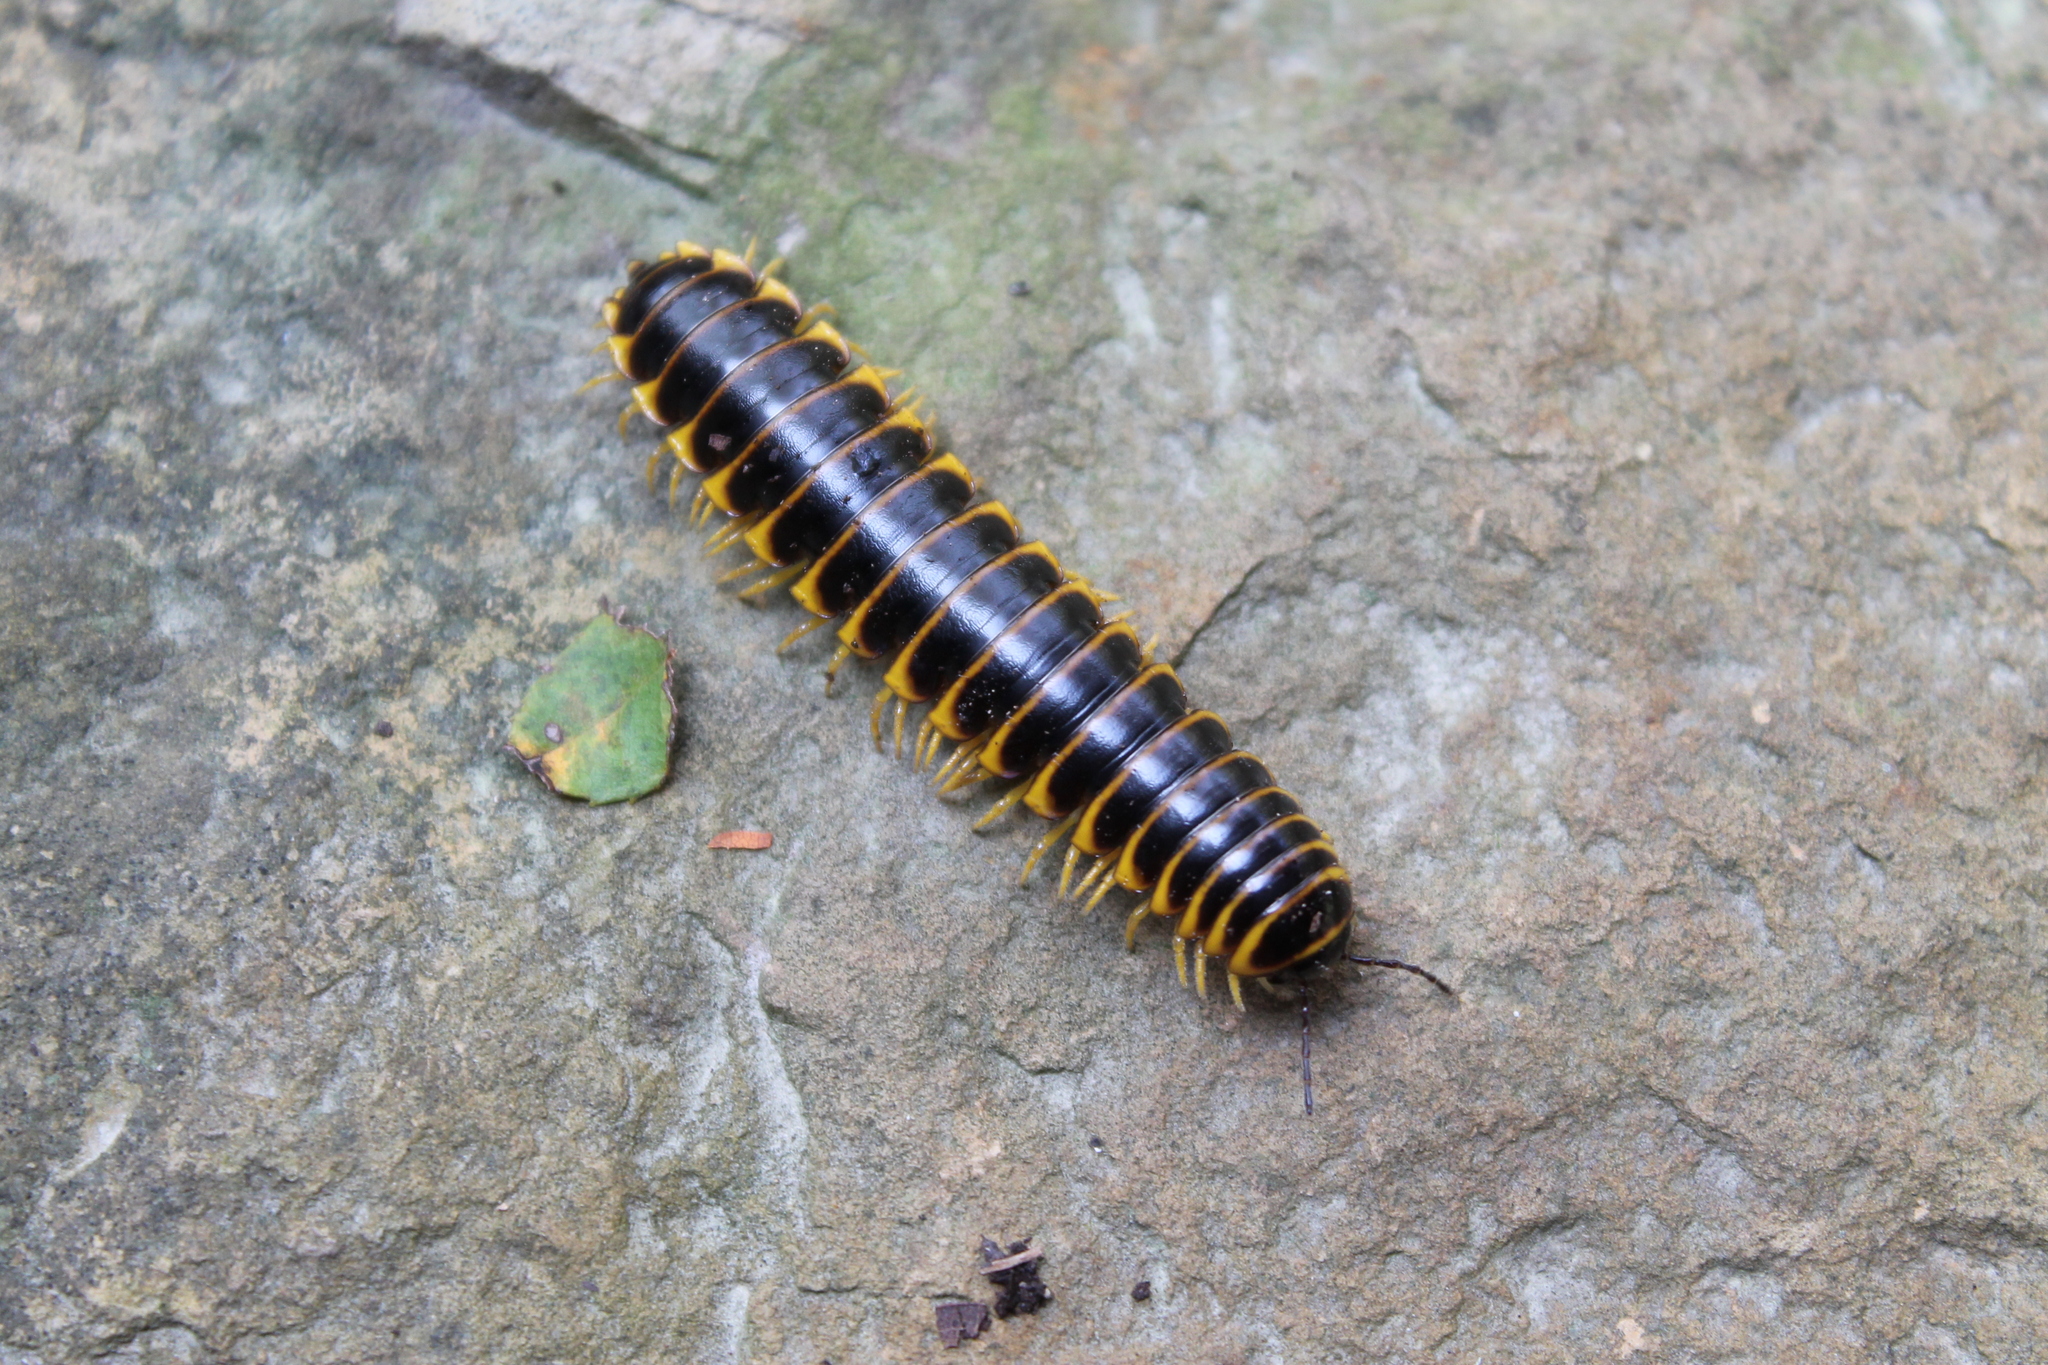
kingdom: Animalia
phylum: Arthropoda
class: Diplopoda
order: Polydesmida
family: Xystodesmidae
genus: Apheloria
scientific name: Apheloria virginiensis
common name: Black-and-gold flat millipede
